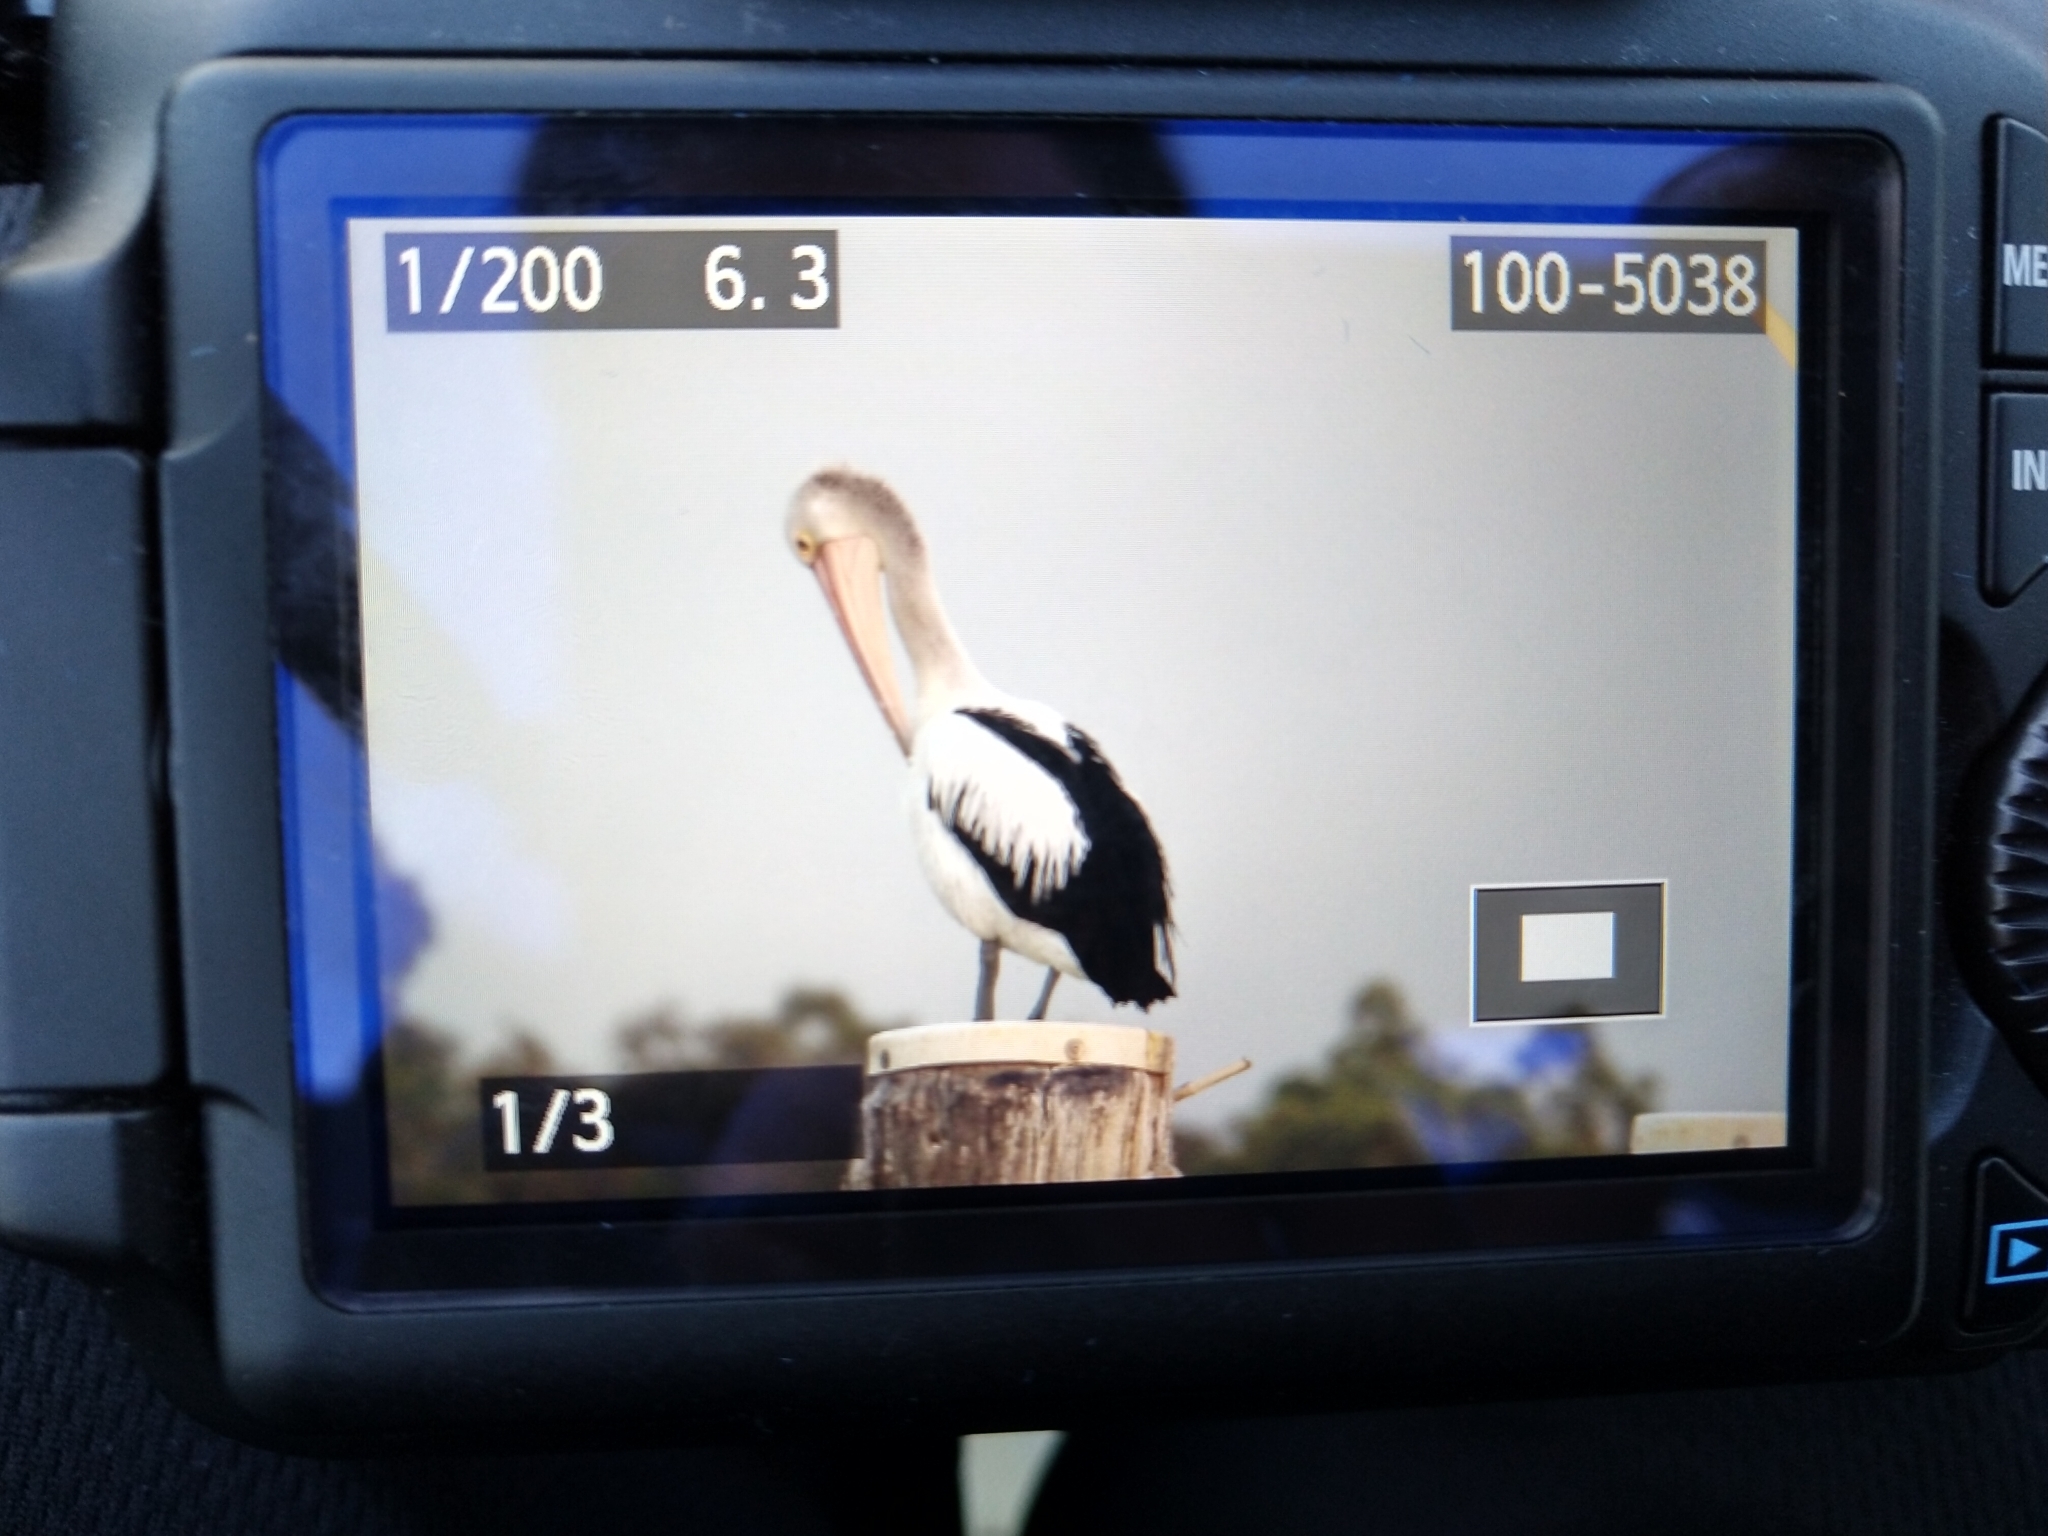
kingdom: Animalia
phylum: Chordata
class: Aves
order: Pelecaniformes
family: Pelecanidae
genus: Pelecanus
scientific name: Pelecanus conspicillatus
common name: Australian pelican
